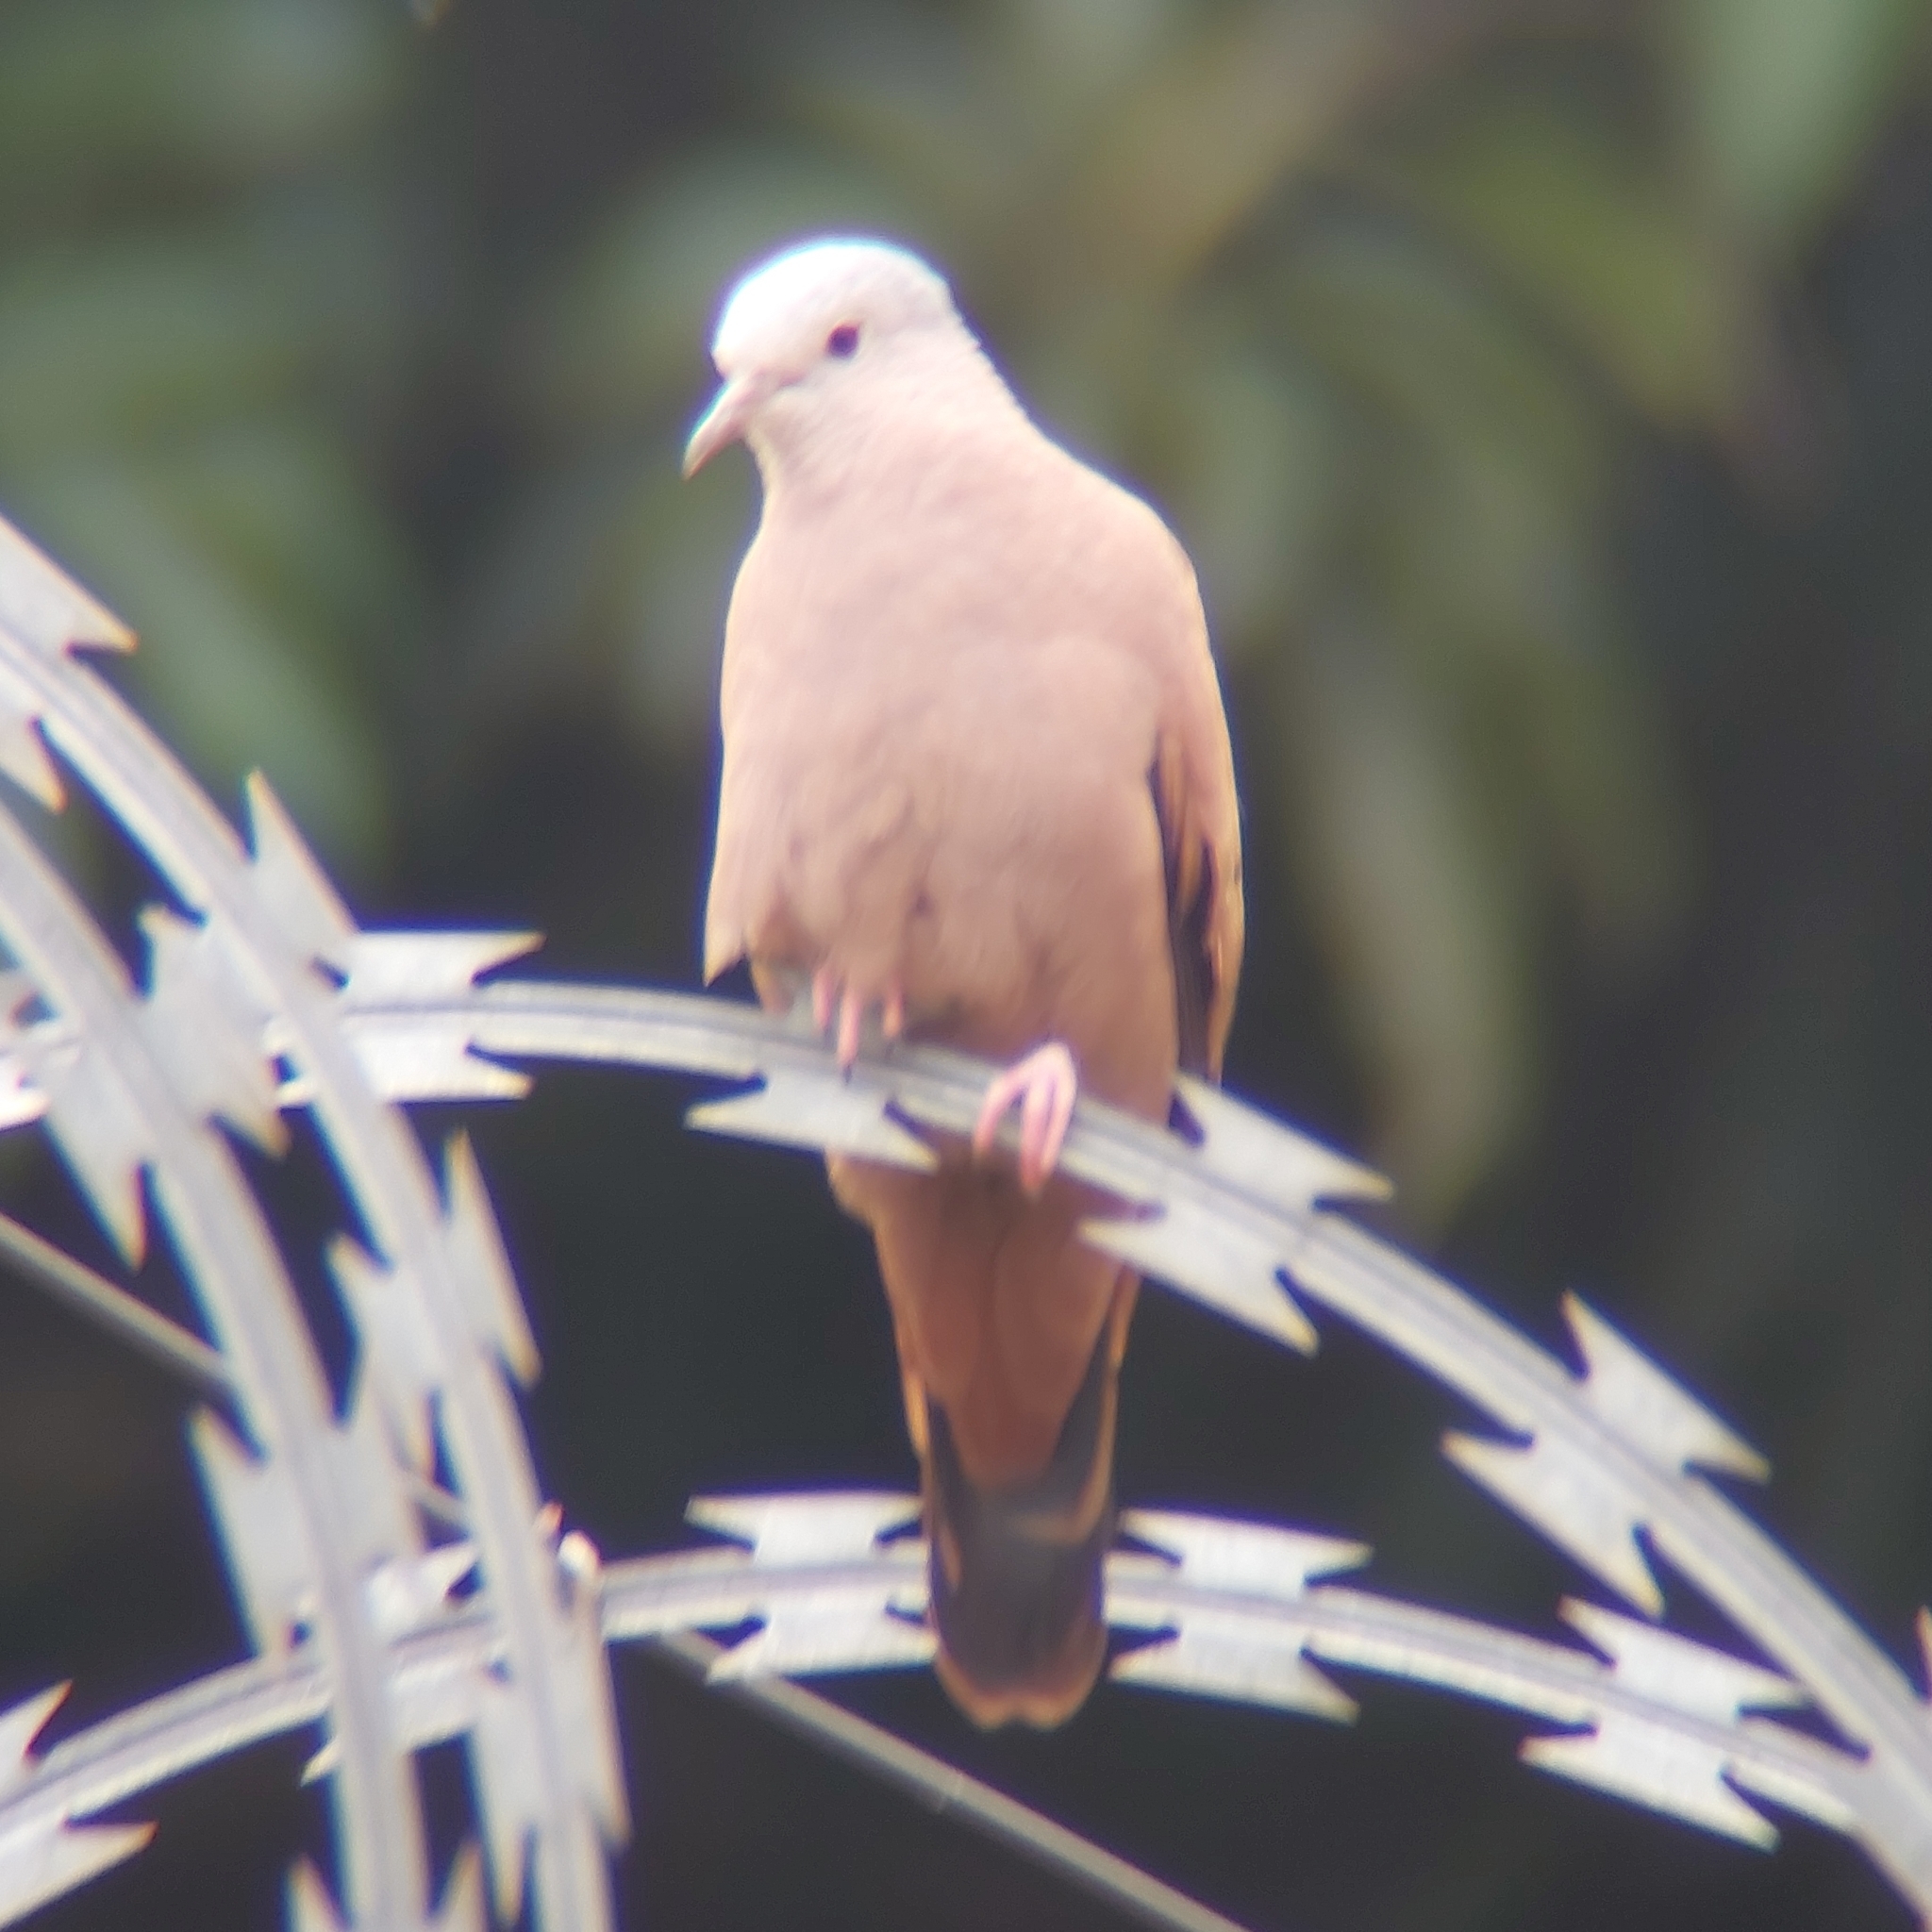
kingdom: Animalia
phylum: Chordata
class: Aves
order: Columbiformes
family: Columbidae
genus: Columbina
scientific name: Columbina talpacoti
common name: Ruddy ground dove
